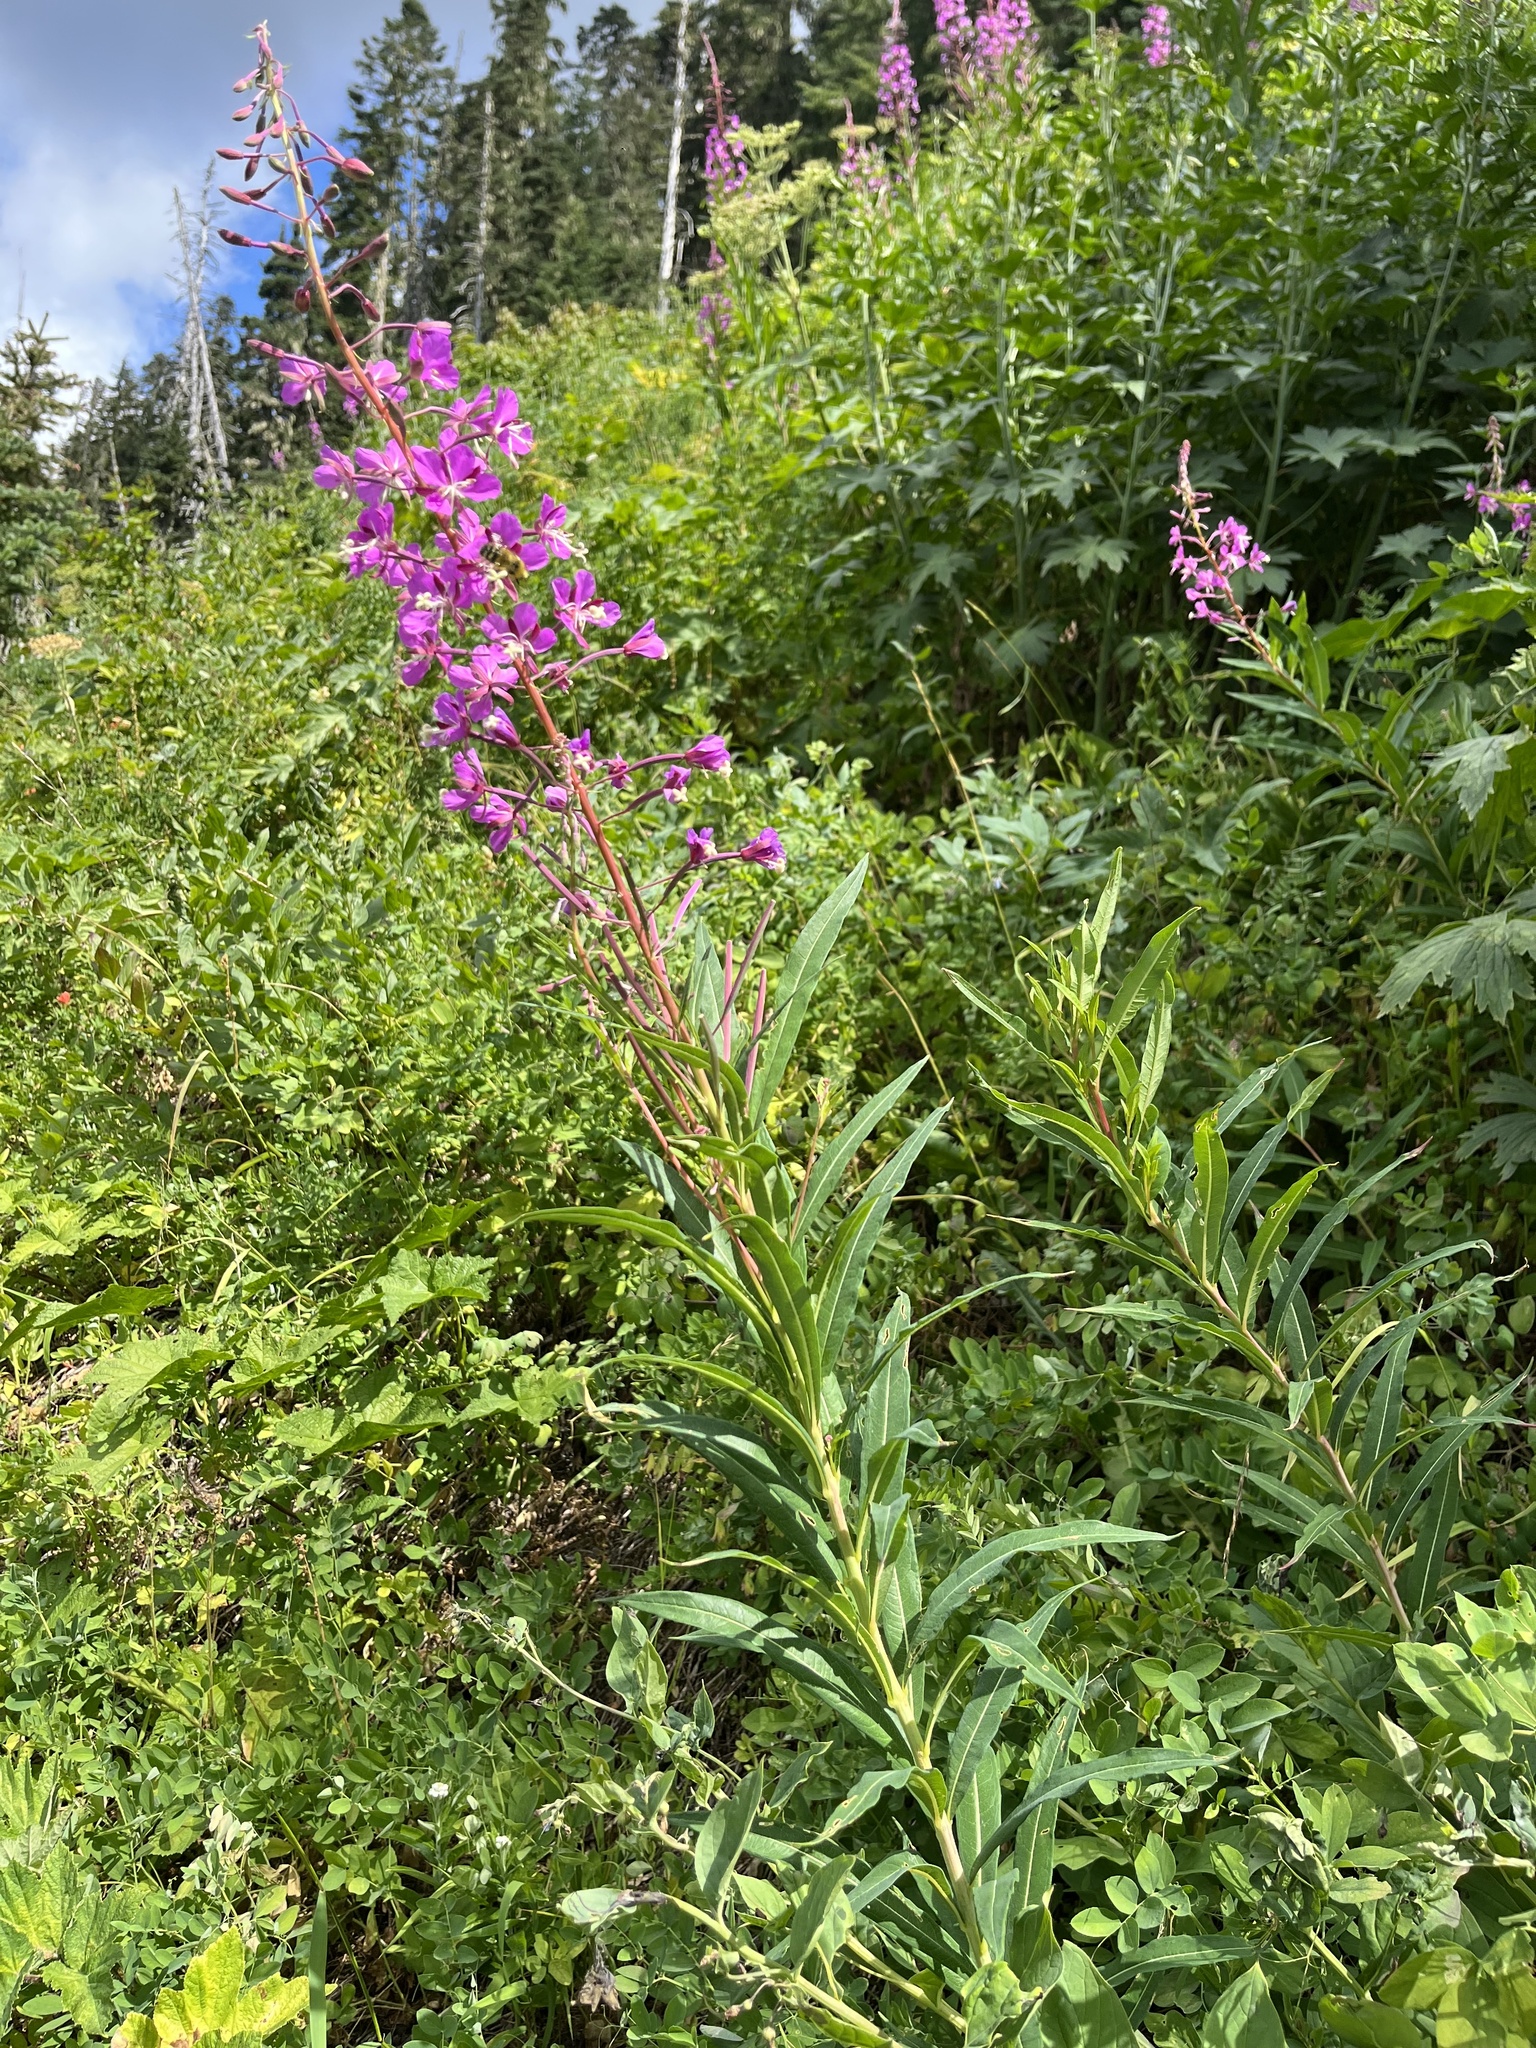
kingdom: Plantae
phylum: Tracheophyta
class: Magnoliopsida
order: Myrtales
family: Onagraceae
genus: Chamaenerion
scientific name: Chamaenerion angustifolium
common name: Fireweed
